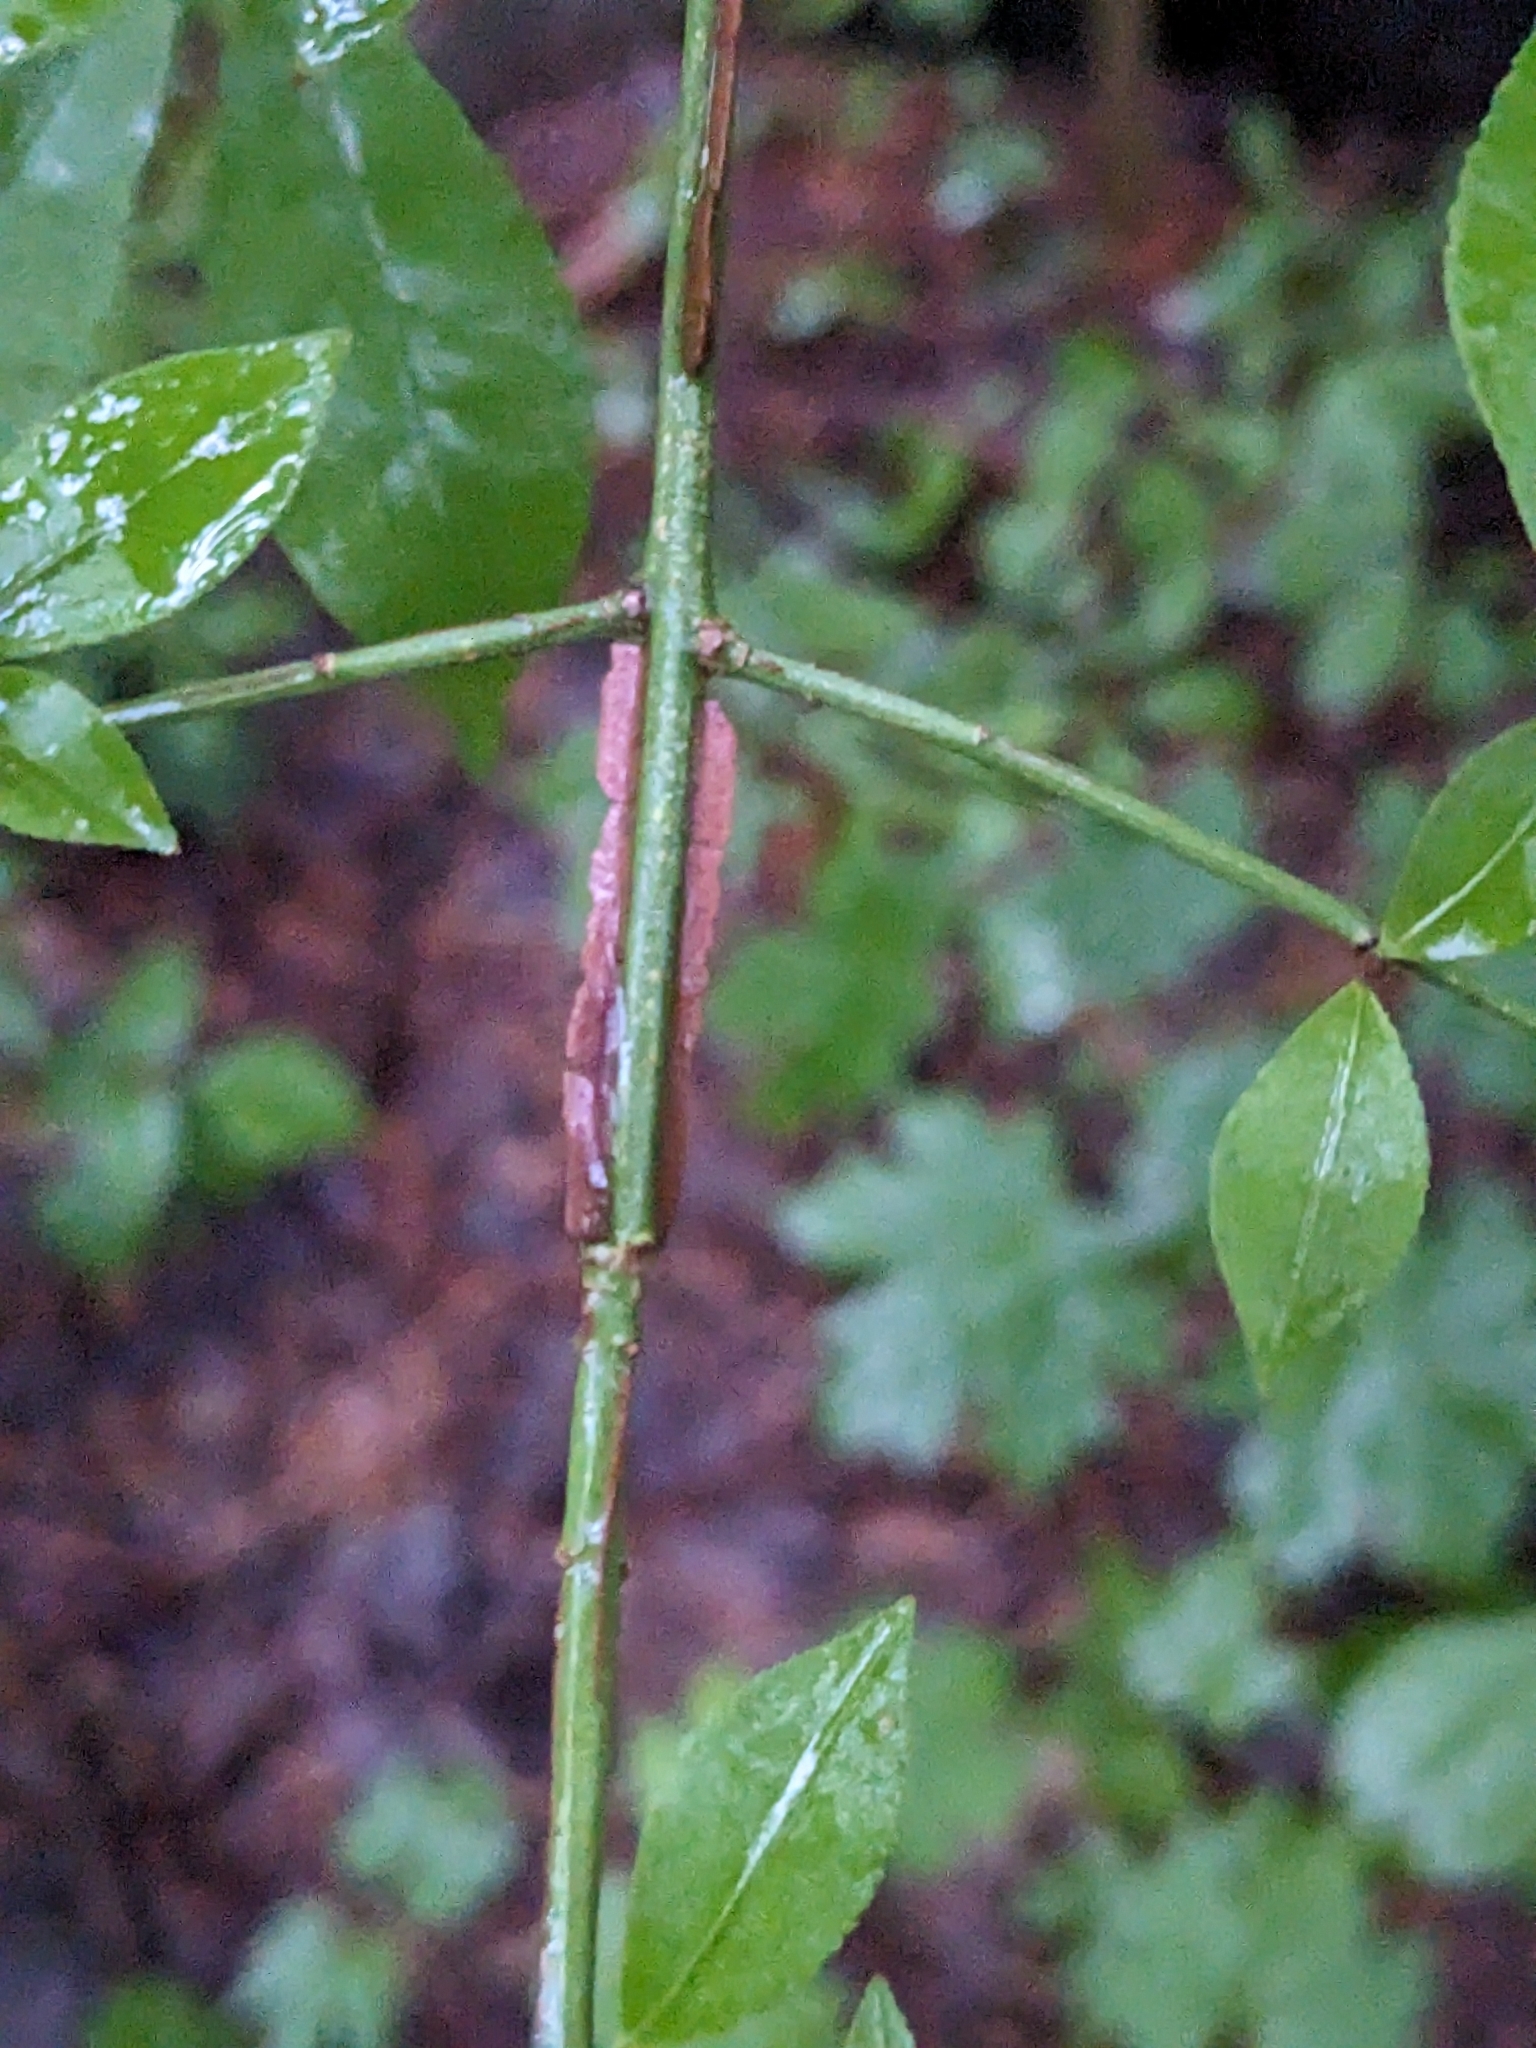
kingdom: Plantae
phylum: Tracheophyta
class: Magnoliopsida
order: Celastrales
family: Celastraceae
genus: Euonymus
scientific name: Euonymus alatus
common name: Winged euonymus
